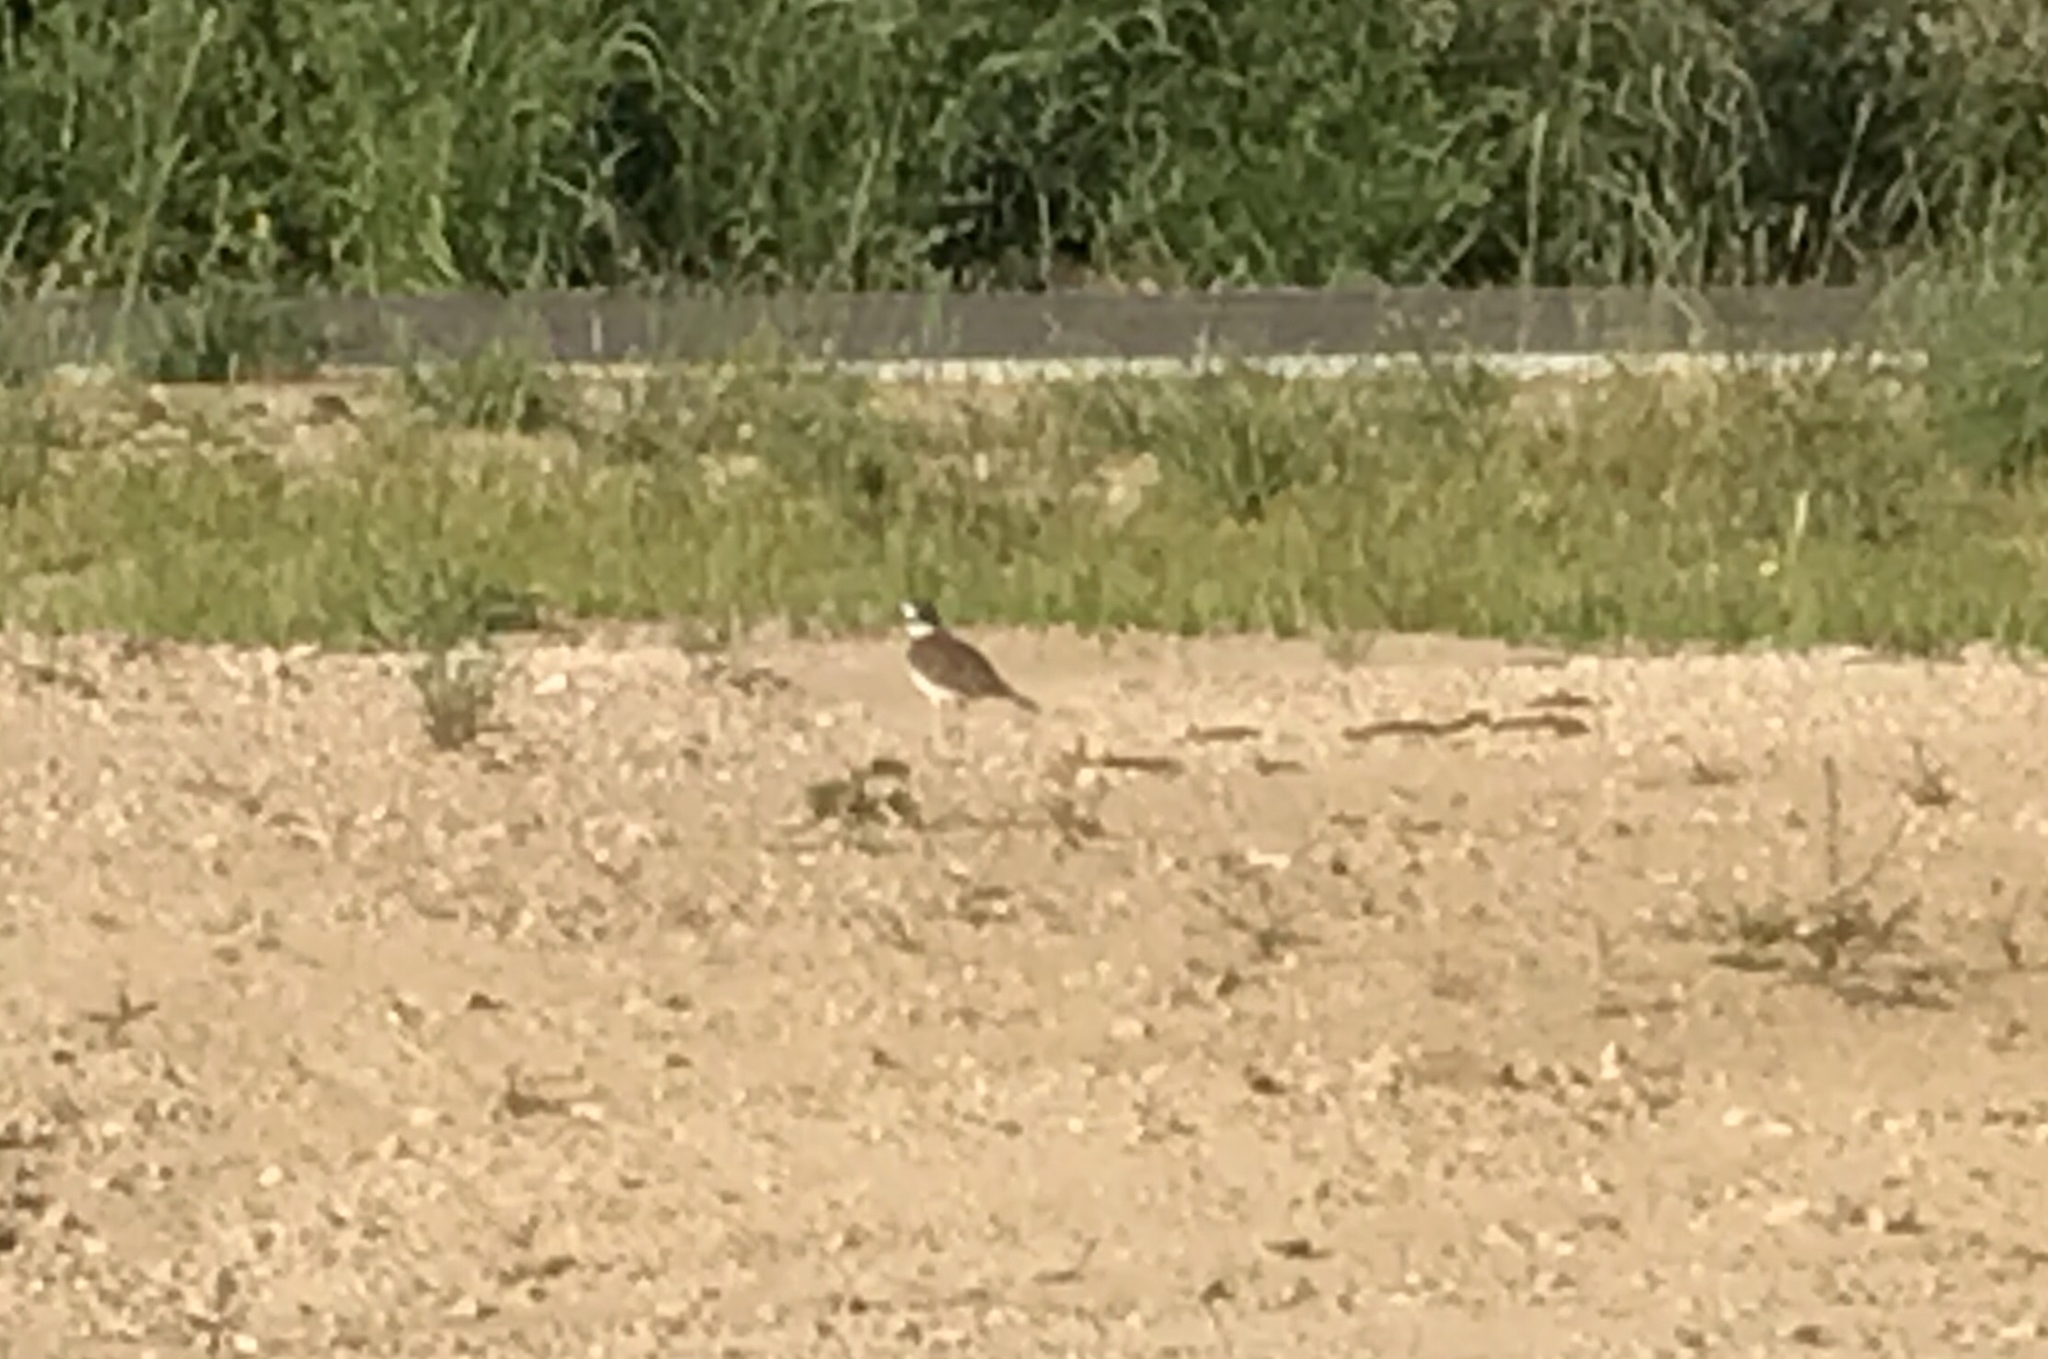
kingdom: Animalia
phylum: Chordata
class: Aves
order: Charadriiformes
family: Charadriidae
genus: Charadrius
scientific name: Charadrius vociferus
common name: Killdeer
